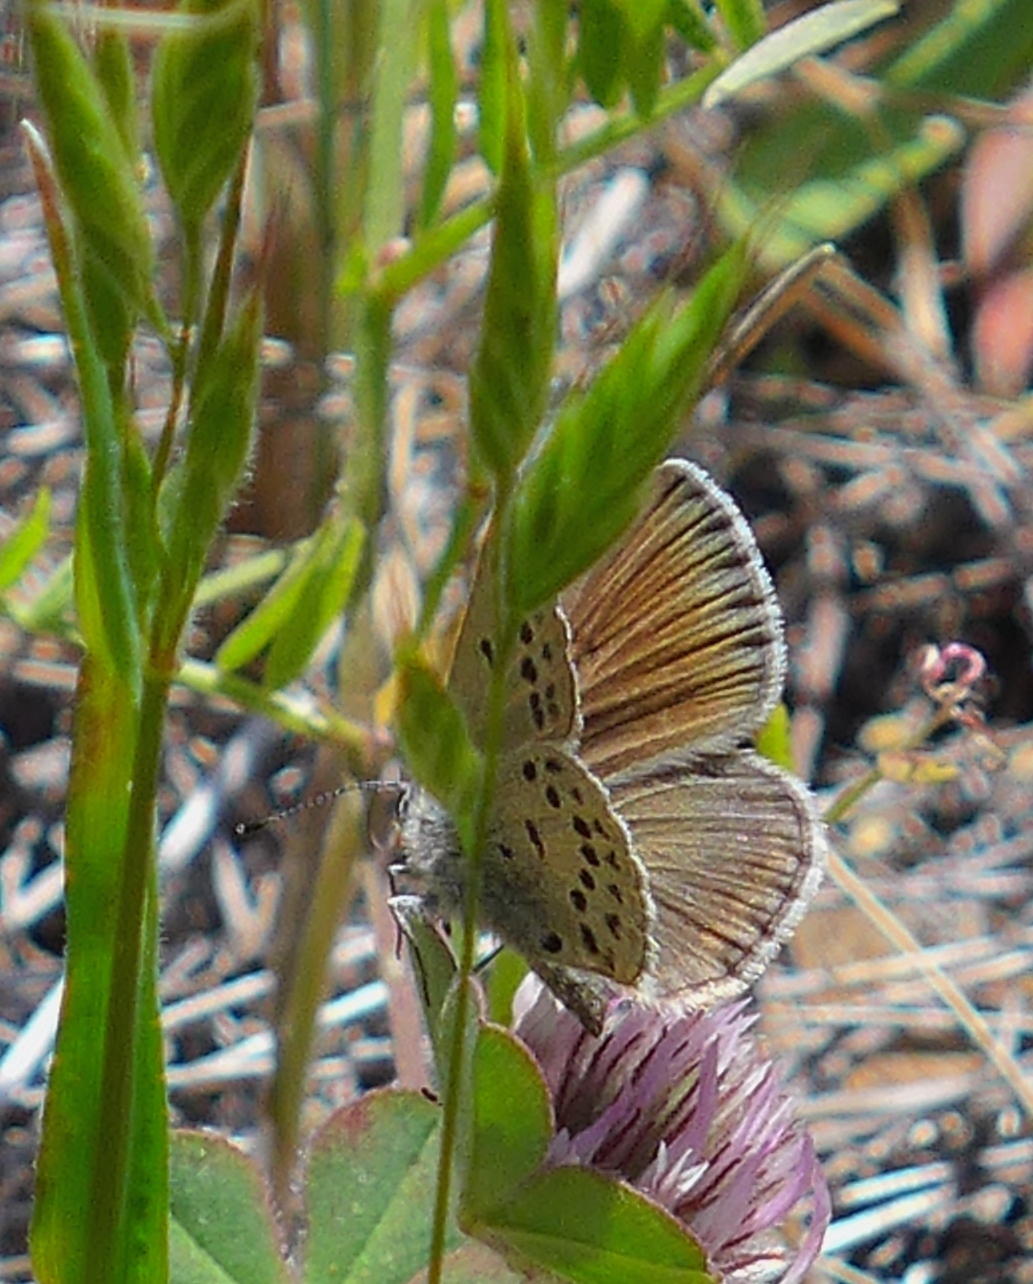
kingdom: Animalia
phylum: Arthropoda
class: Insecta
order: Lepidoptera
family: Lycaenidae
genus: Icaricia
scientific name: Icaricia icarioides
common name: Boisduval's blue
